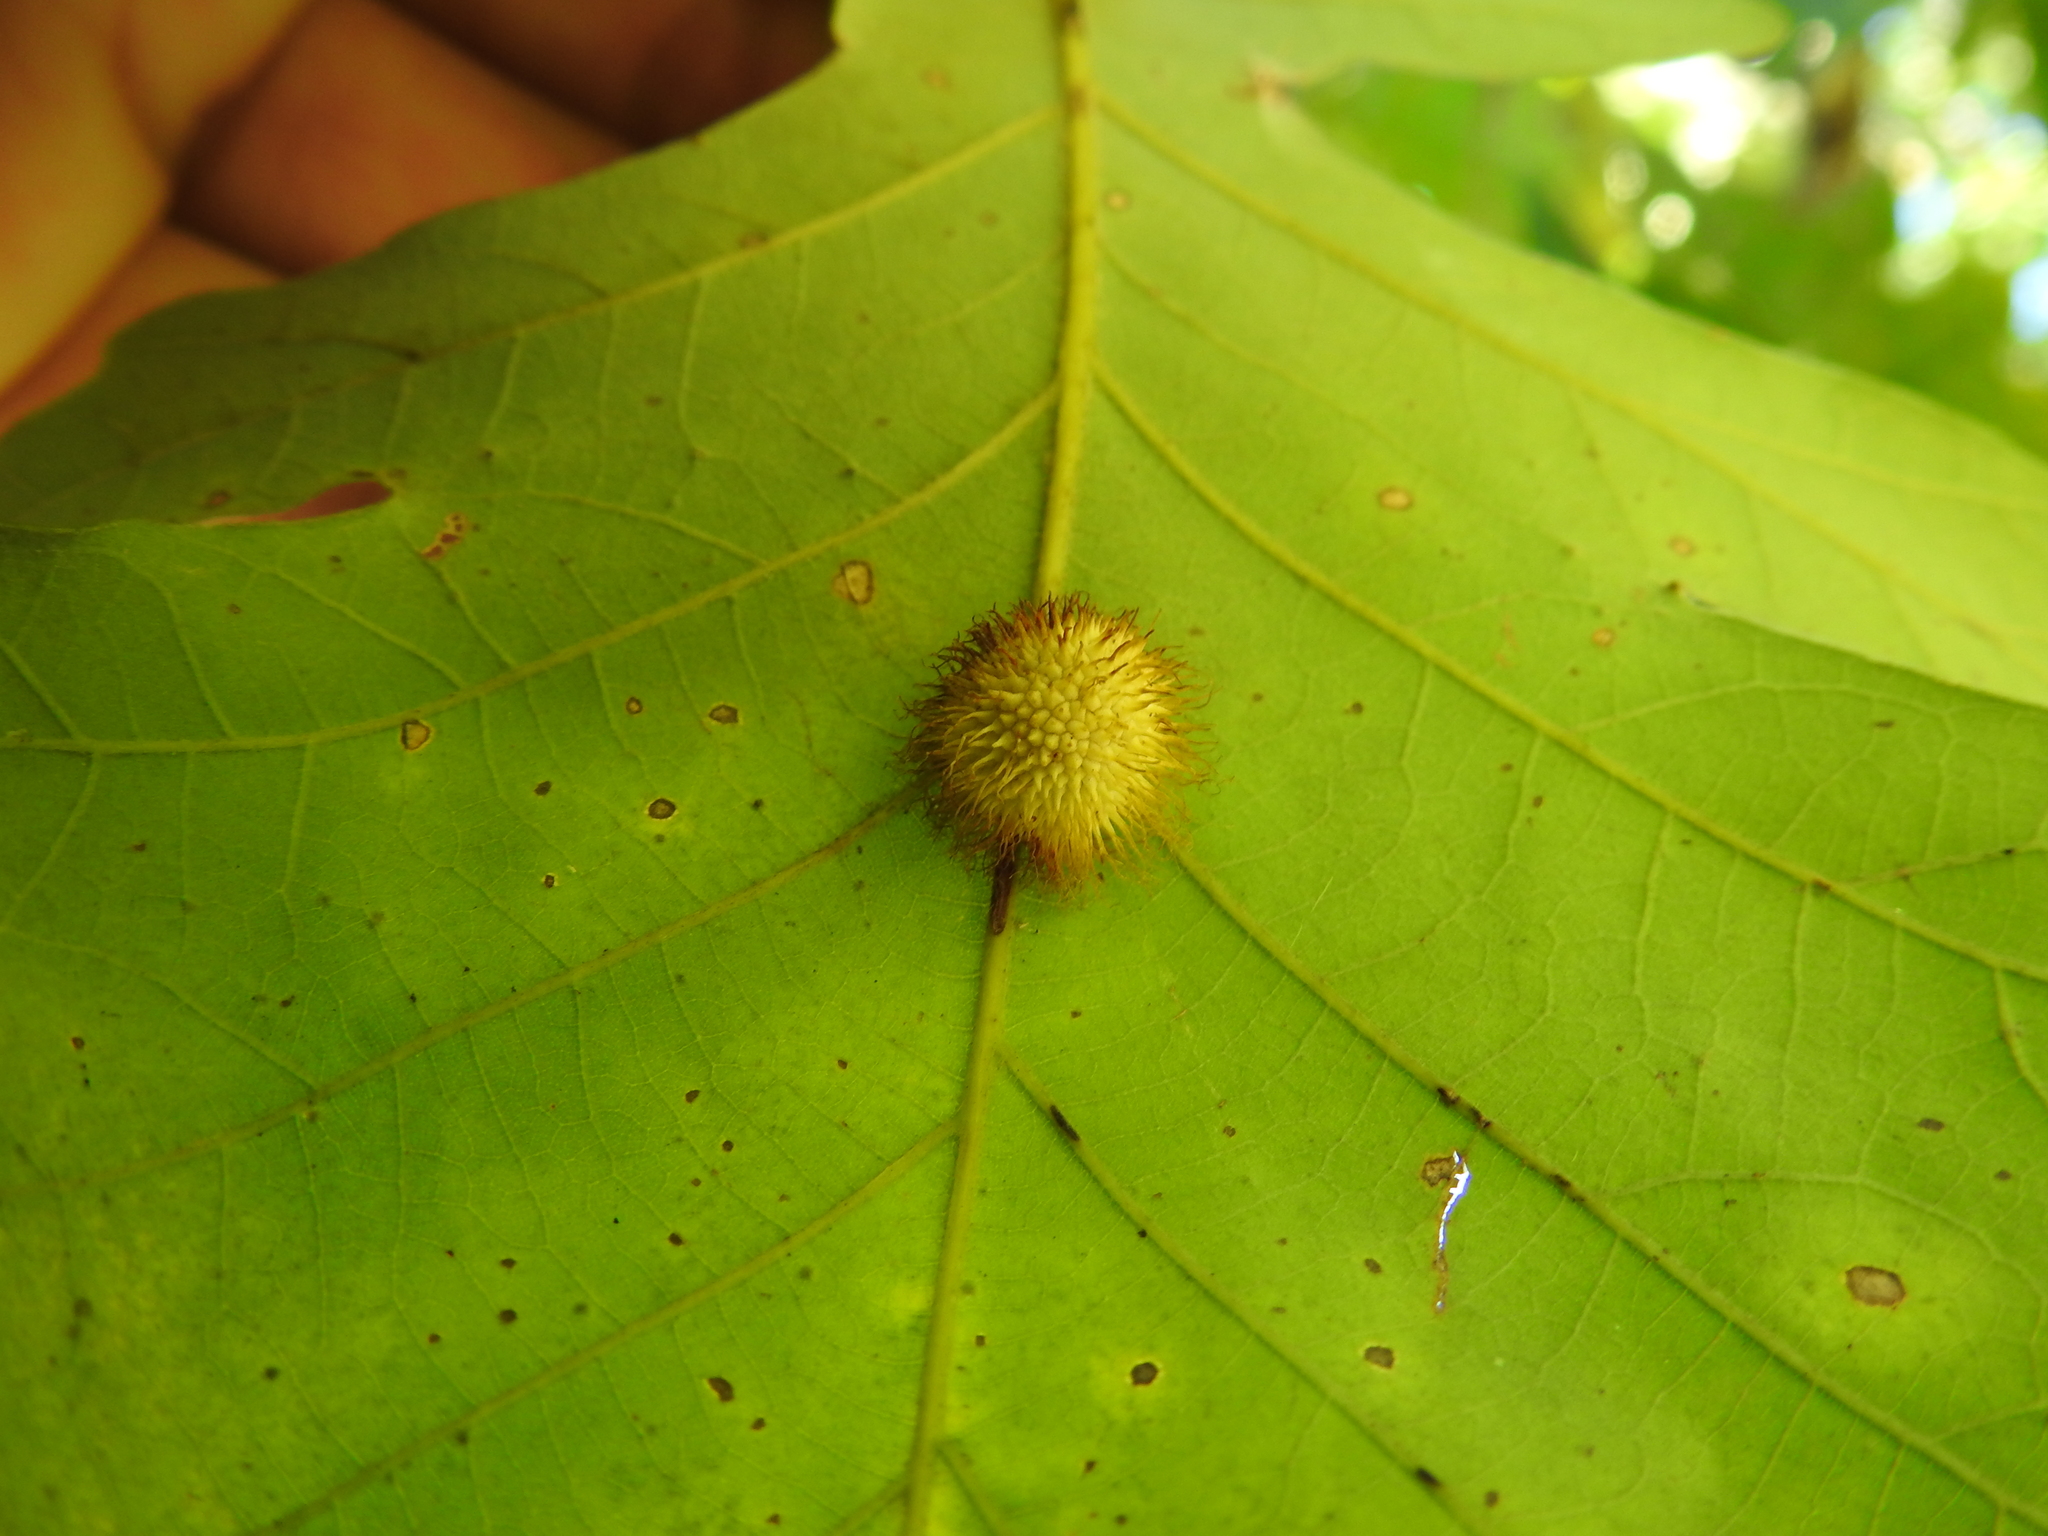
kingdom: Animalia
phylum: Arthropoda
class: Insecta
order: Hymenoptera
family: Cynipidae
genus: Acraspis
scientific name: Acraspis villosa
